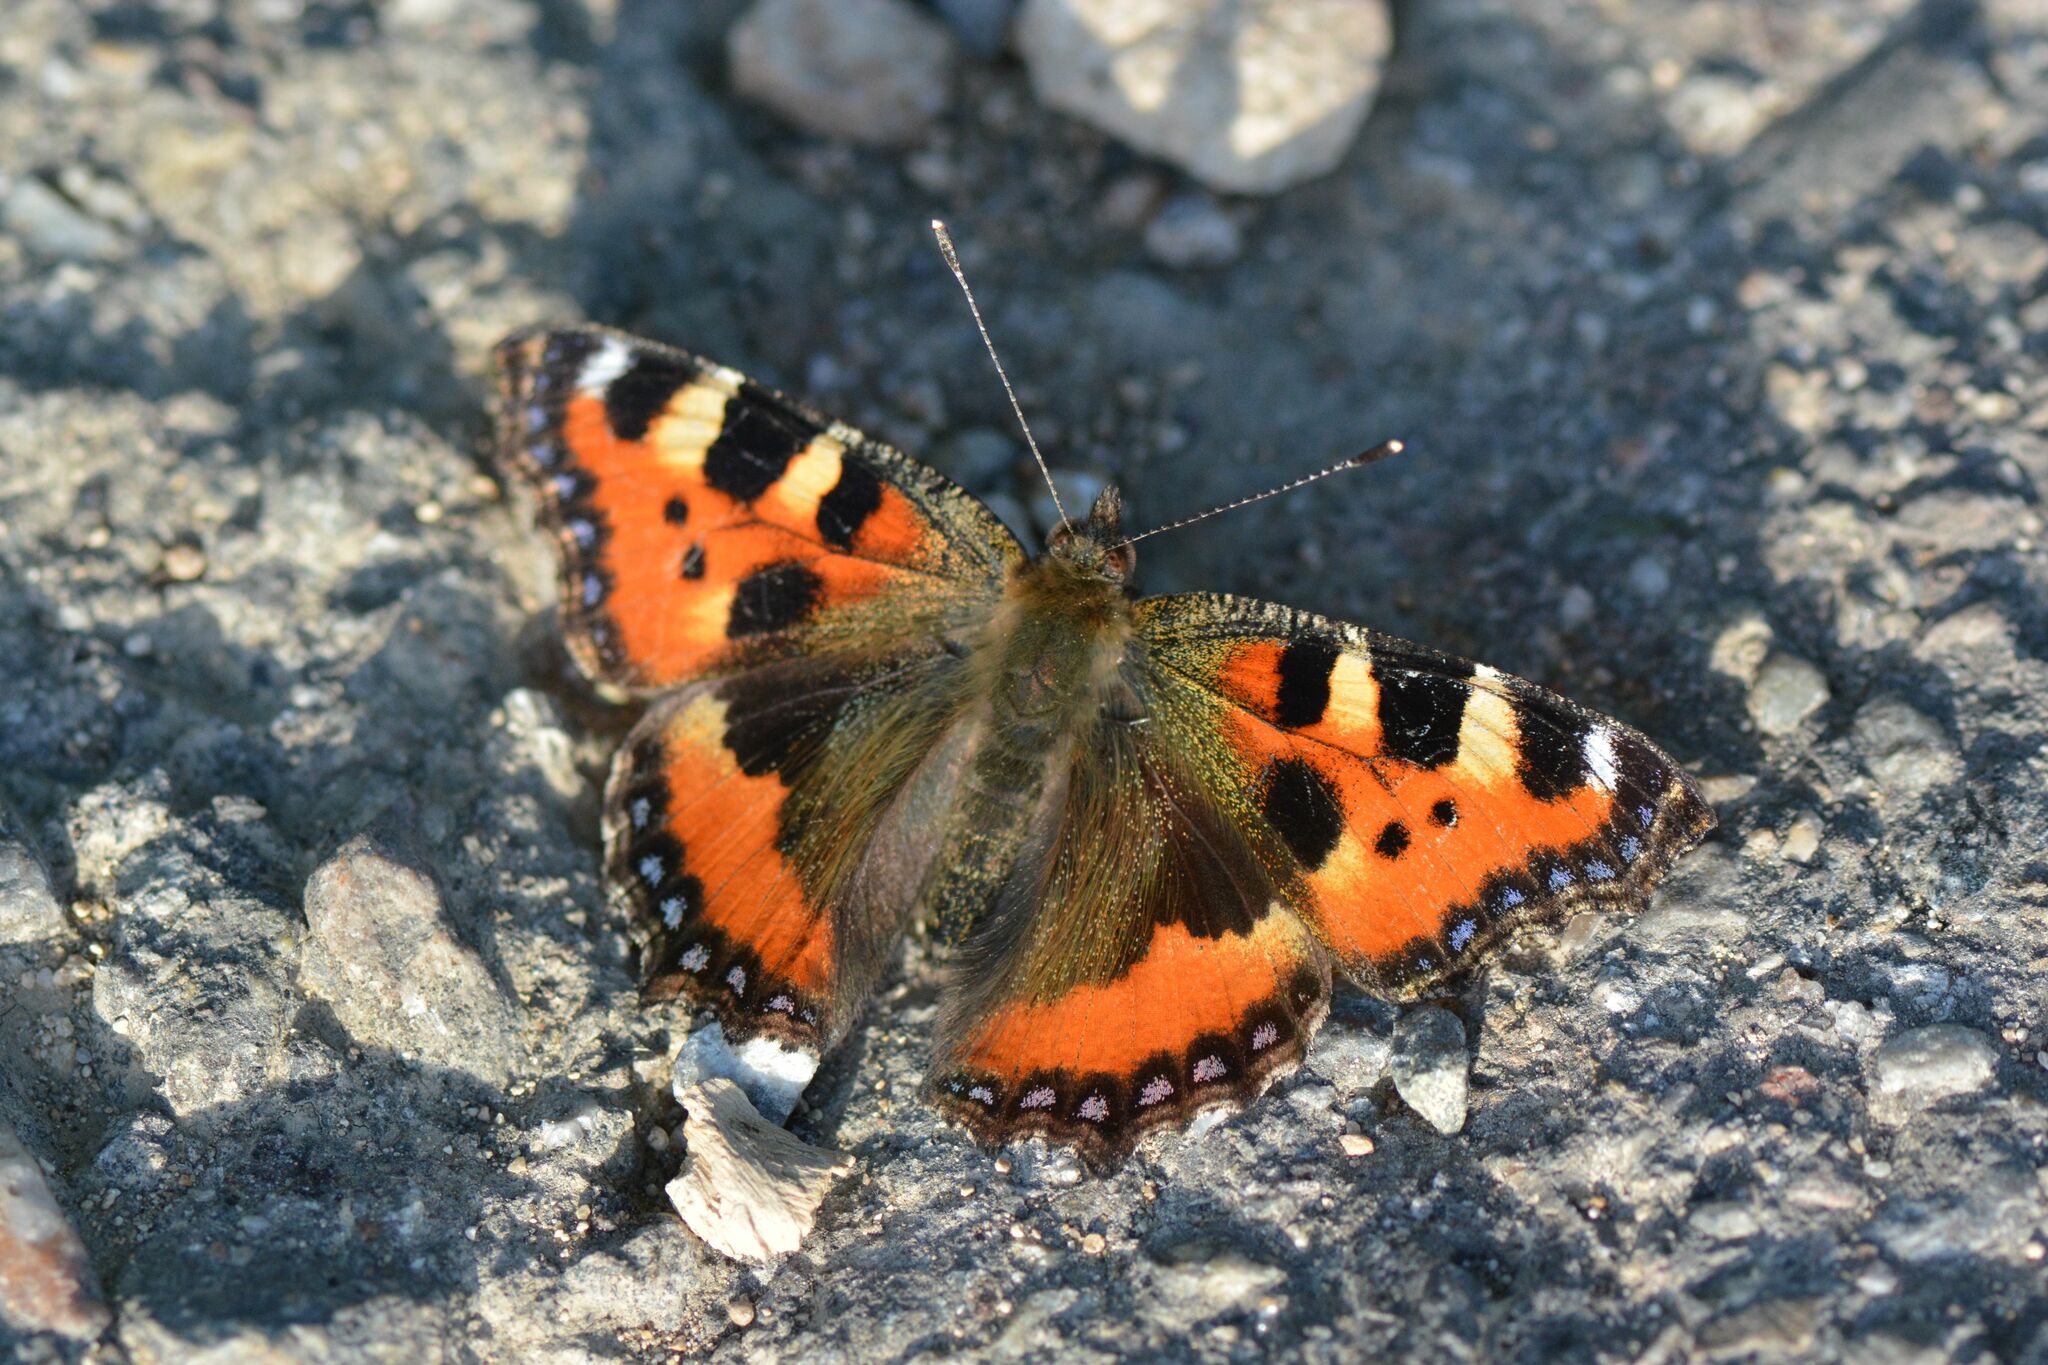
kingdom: Animalia
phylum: Arthropoda
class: Insecta
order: Lepidoptera
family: Nymphalidae
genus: Aglais
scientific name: Aglais urticae
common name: Small tortoiseshell
